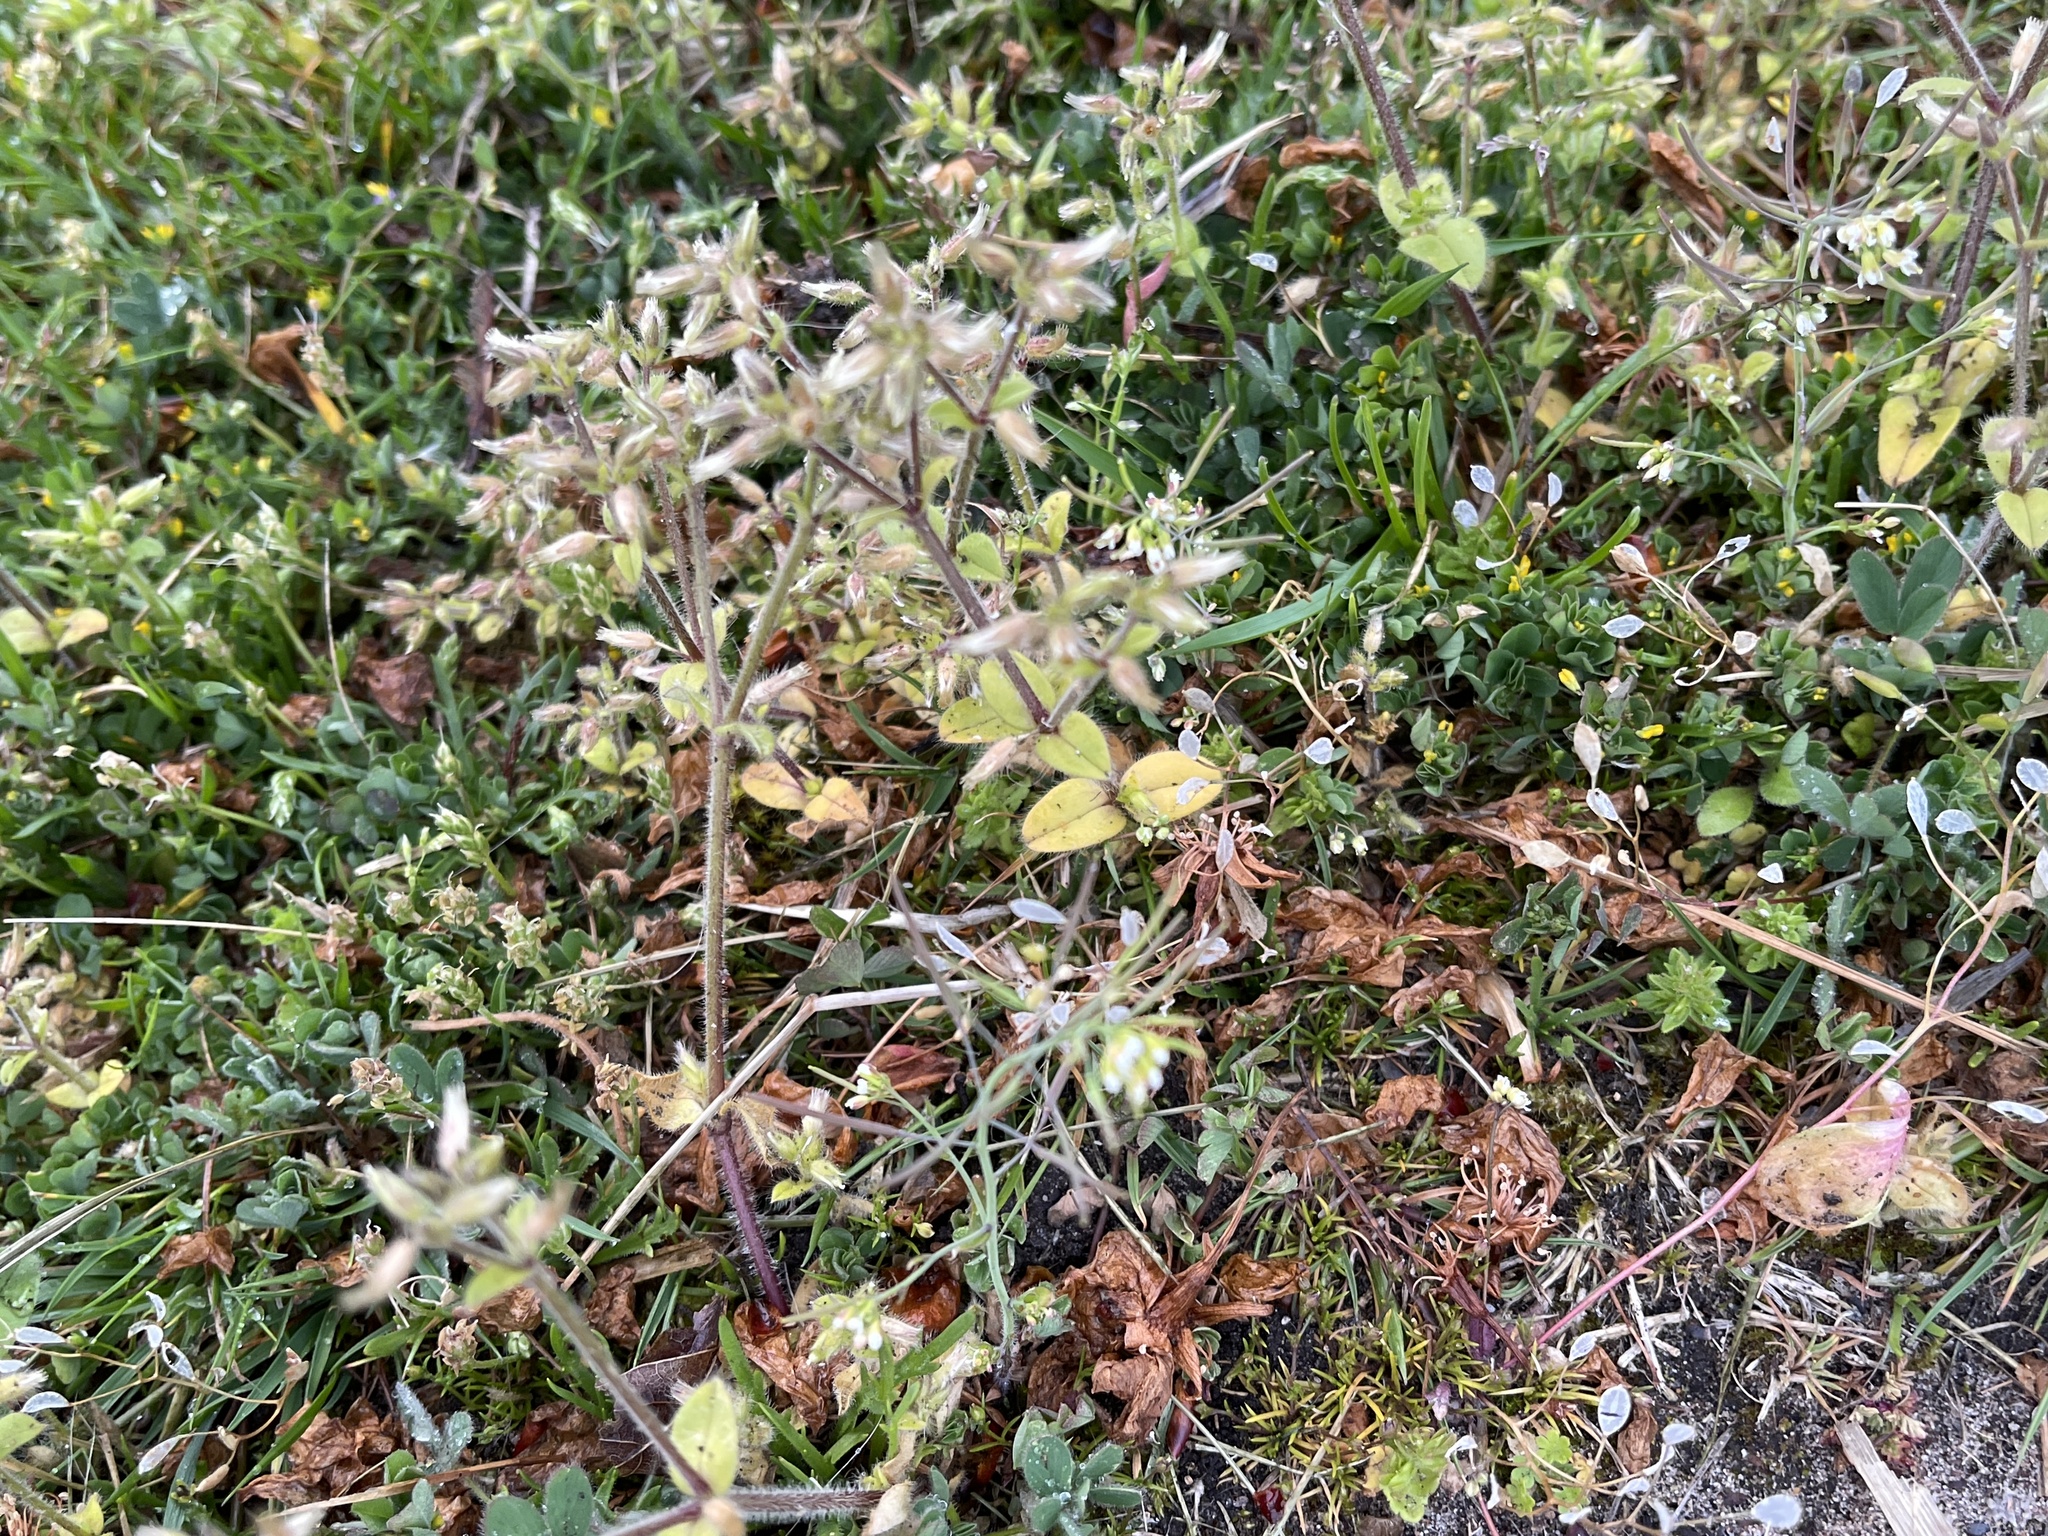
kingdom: Plantae
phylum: Tracheophyta
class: Magnoliopsida
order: Caryophyllales
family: Caryophyllaceae
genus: Cerastium
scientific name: Cerastium glomeratum
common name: Sticky chickweed
